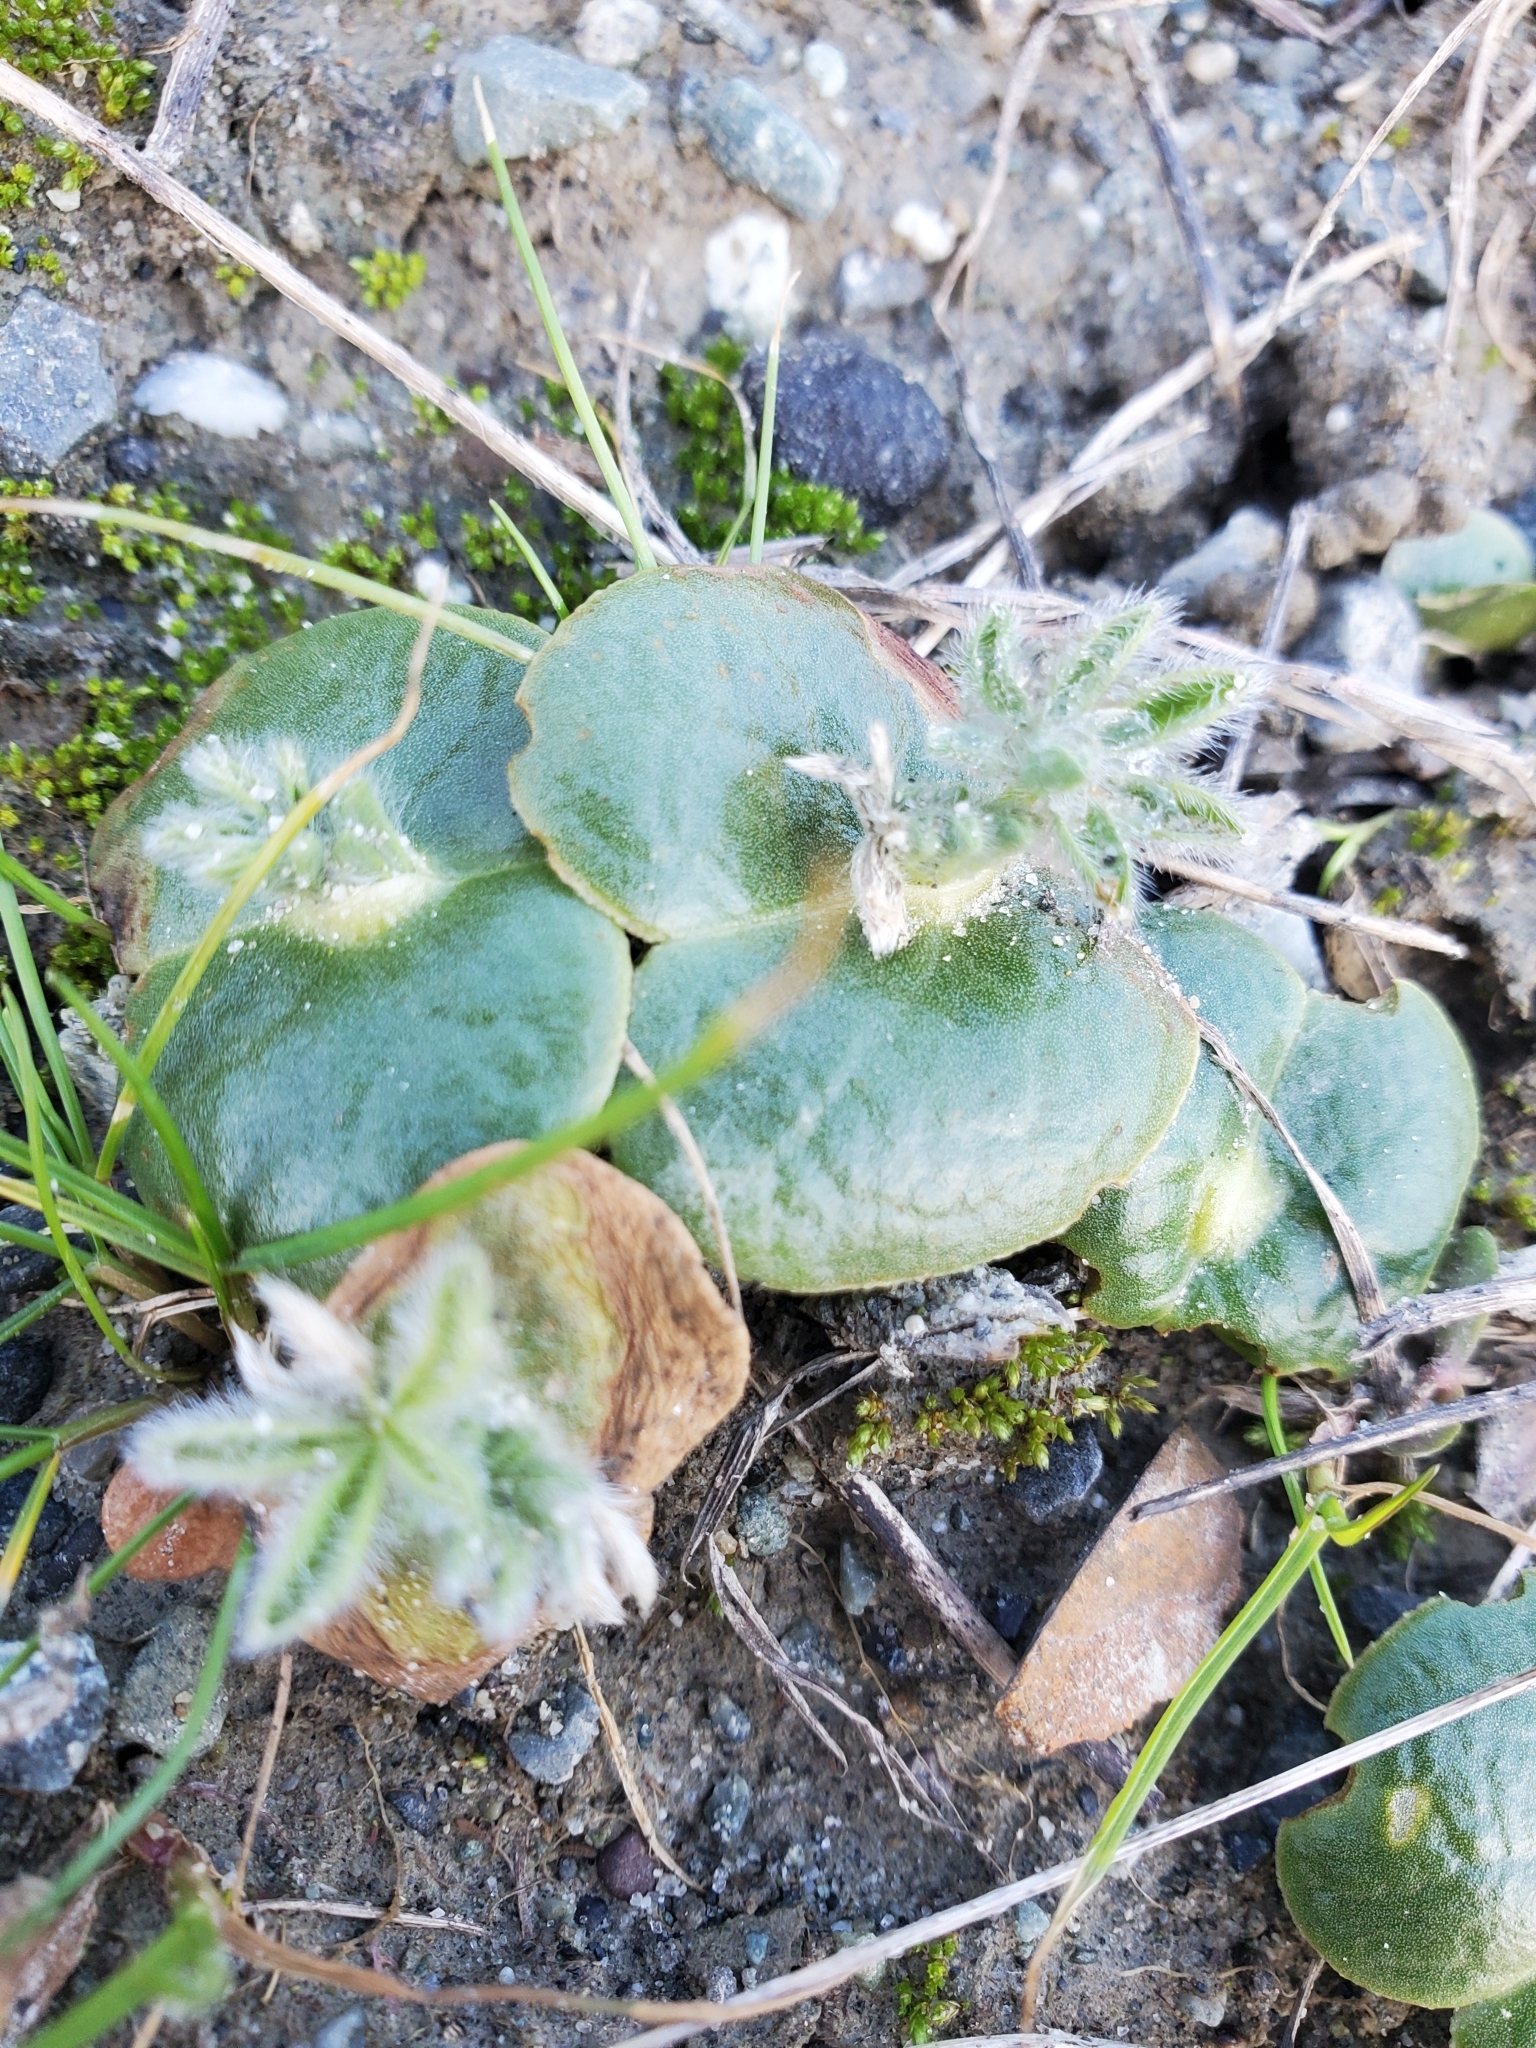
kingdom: Plantae
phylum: Tracheophyta
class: Magnoliopsida
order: Fabales
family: Fabaceae
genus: Lupinus
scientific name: Lupinus densiflorus
